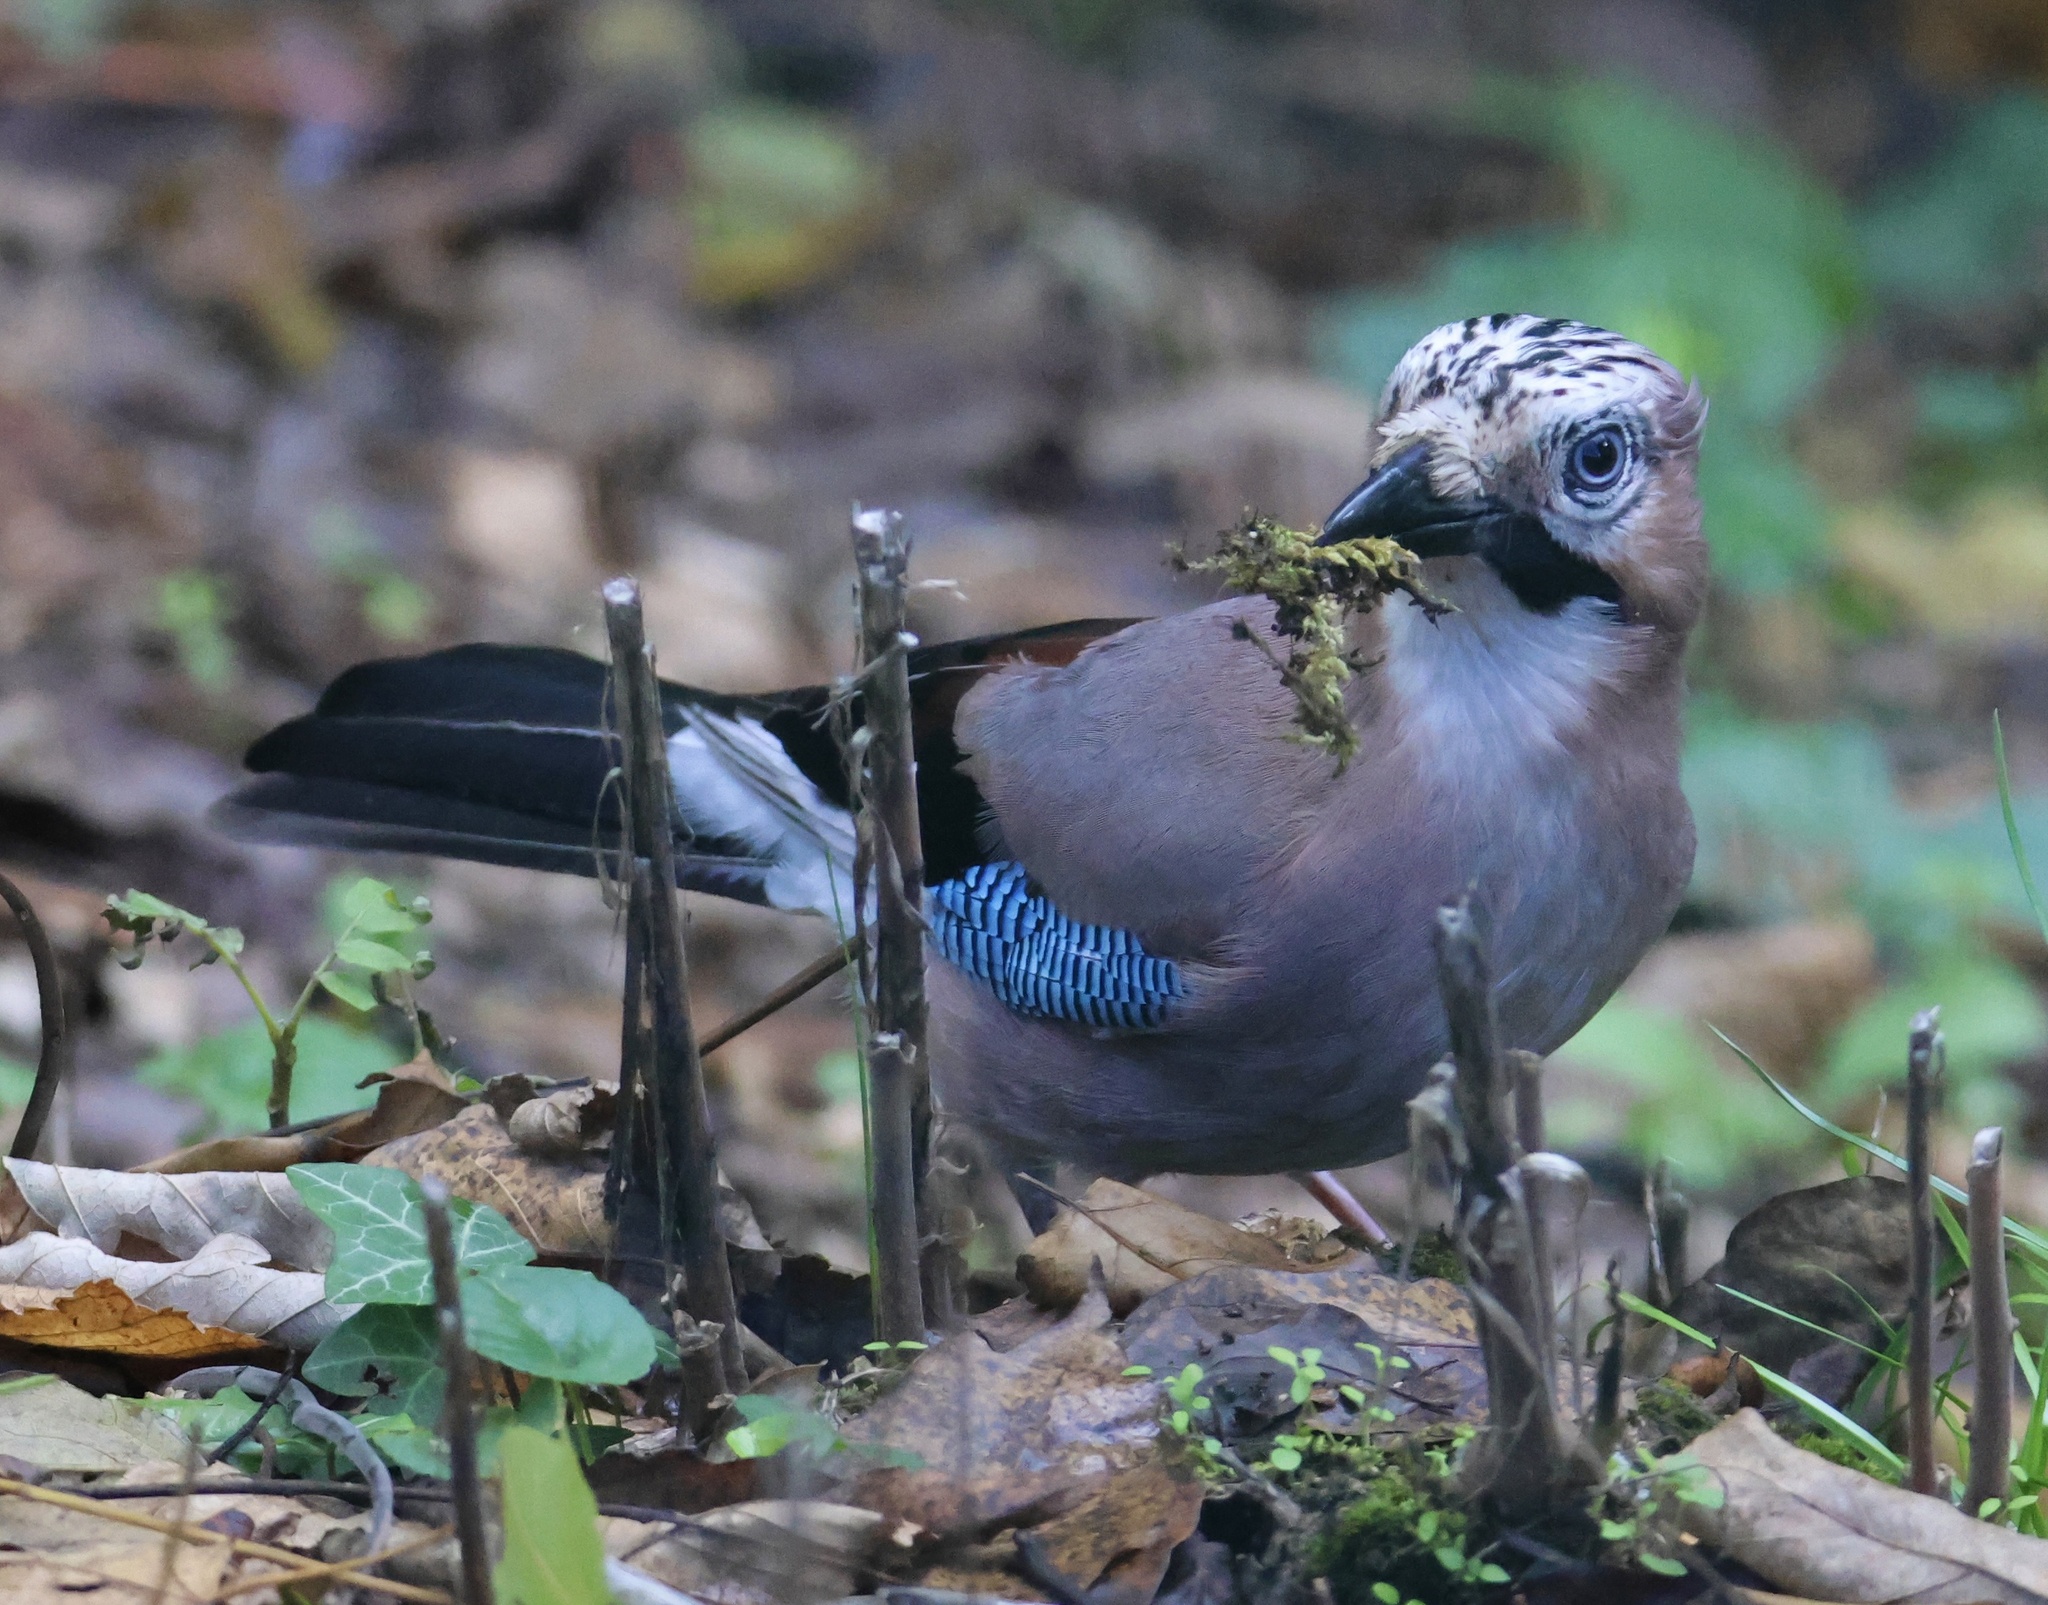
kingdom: Animalia
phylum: Chordata
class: Aves
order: Passeriformes
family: Corvidae
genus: Garrulus
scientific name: Garrulus glandarius
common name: Eurasian jay
